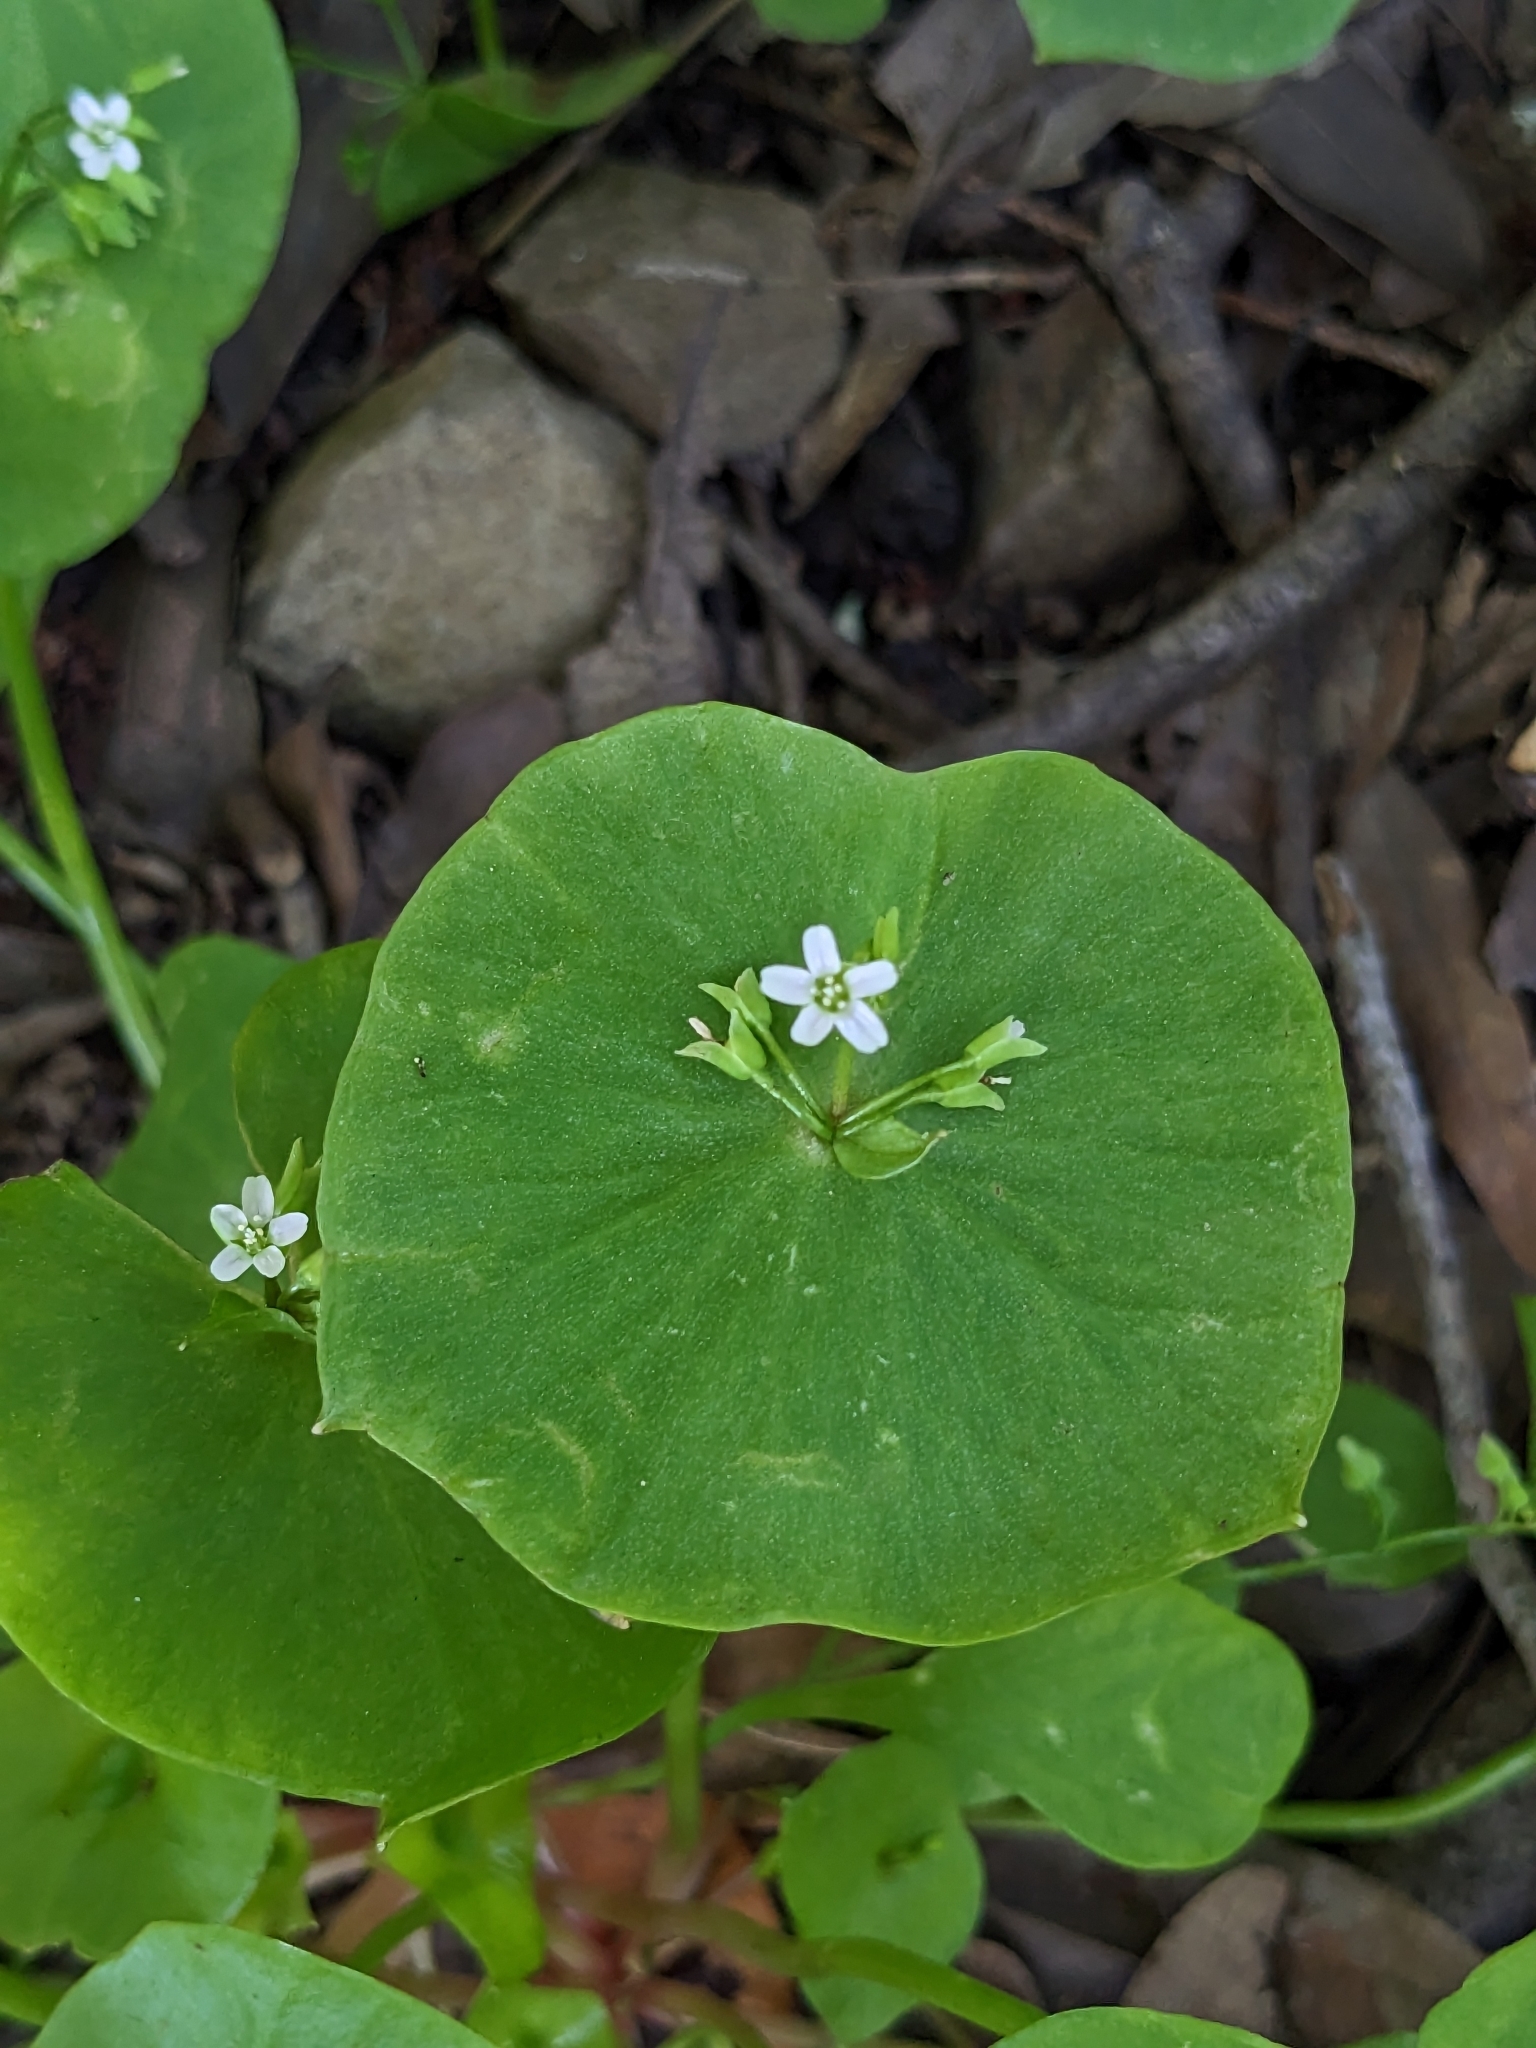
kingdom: Plantae
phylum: Tracheophyta
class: Magnoliopsida
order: Caryophyllales
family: Montiaceae
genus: Claytonia
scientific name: Claytonia perfoliata
